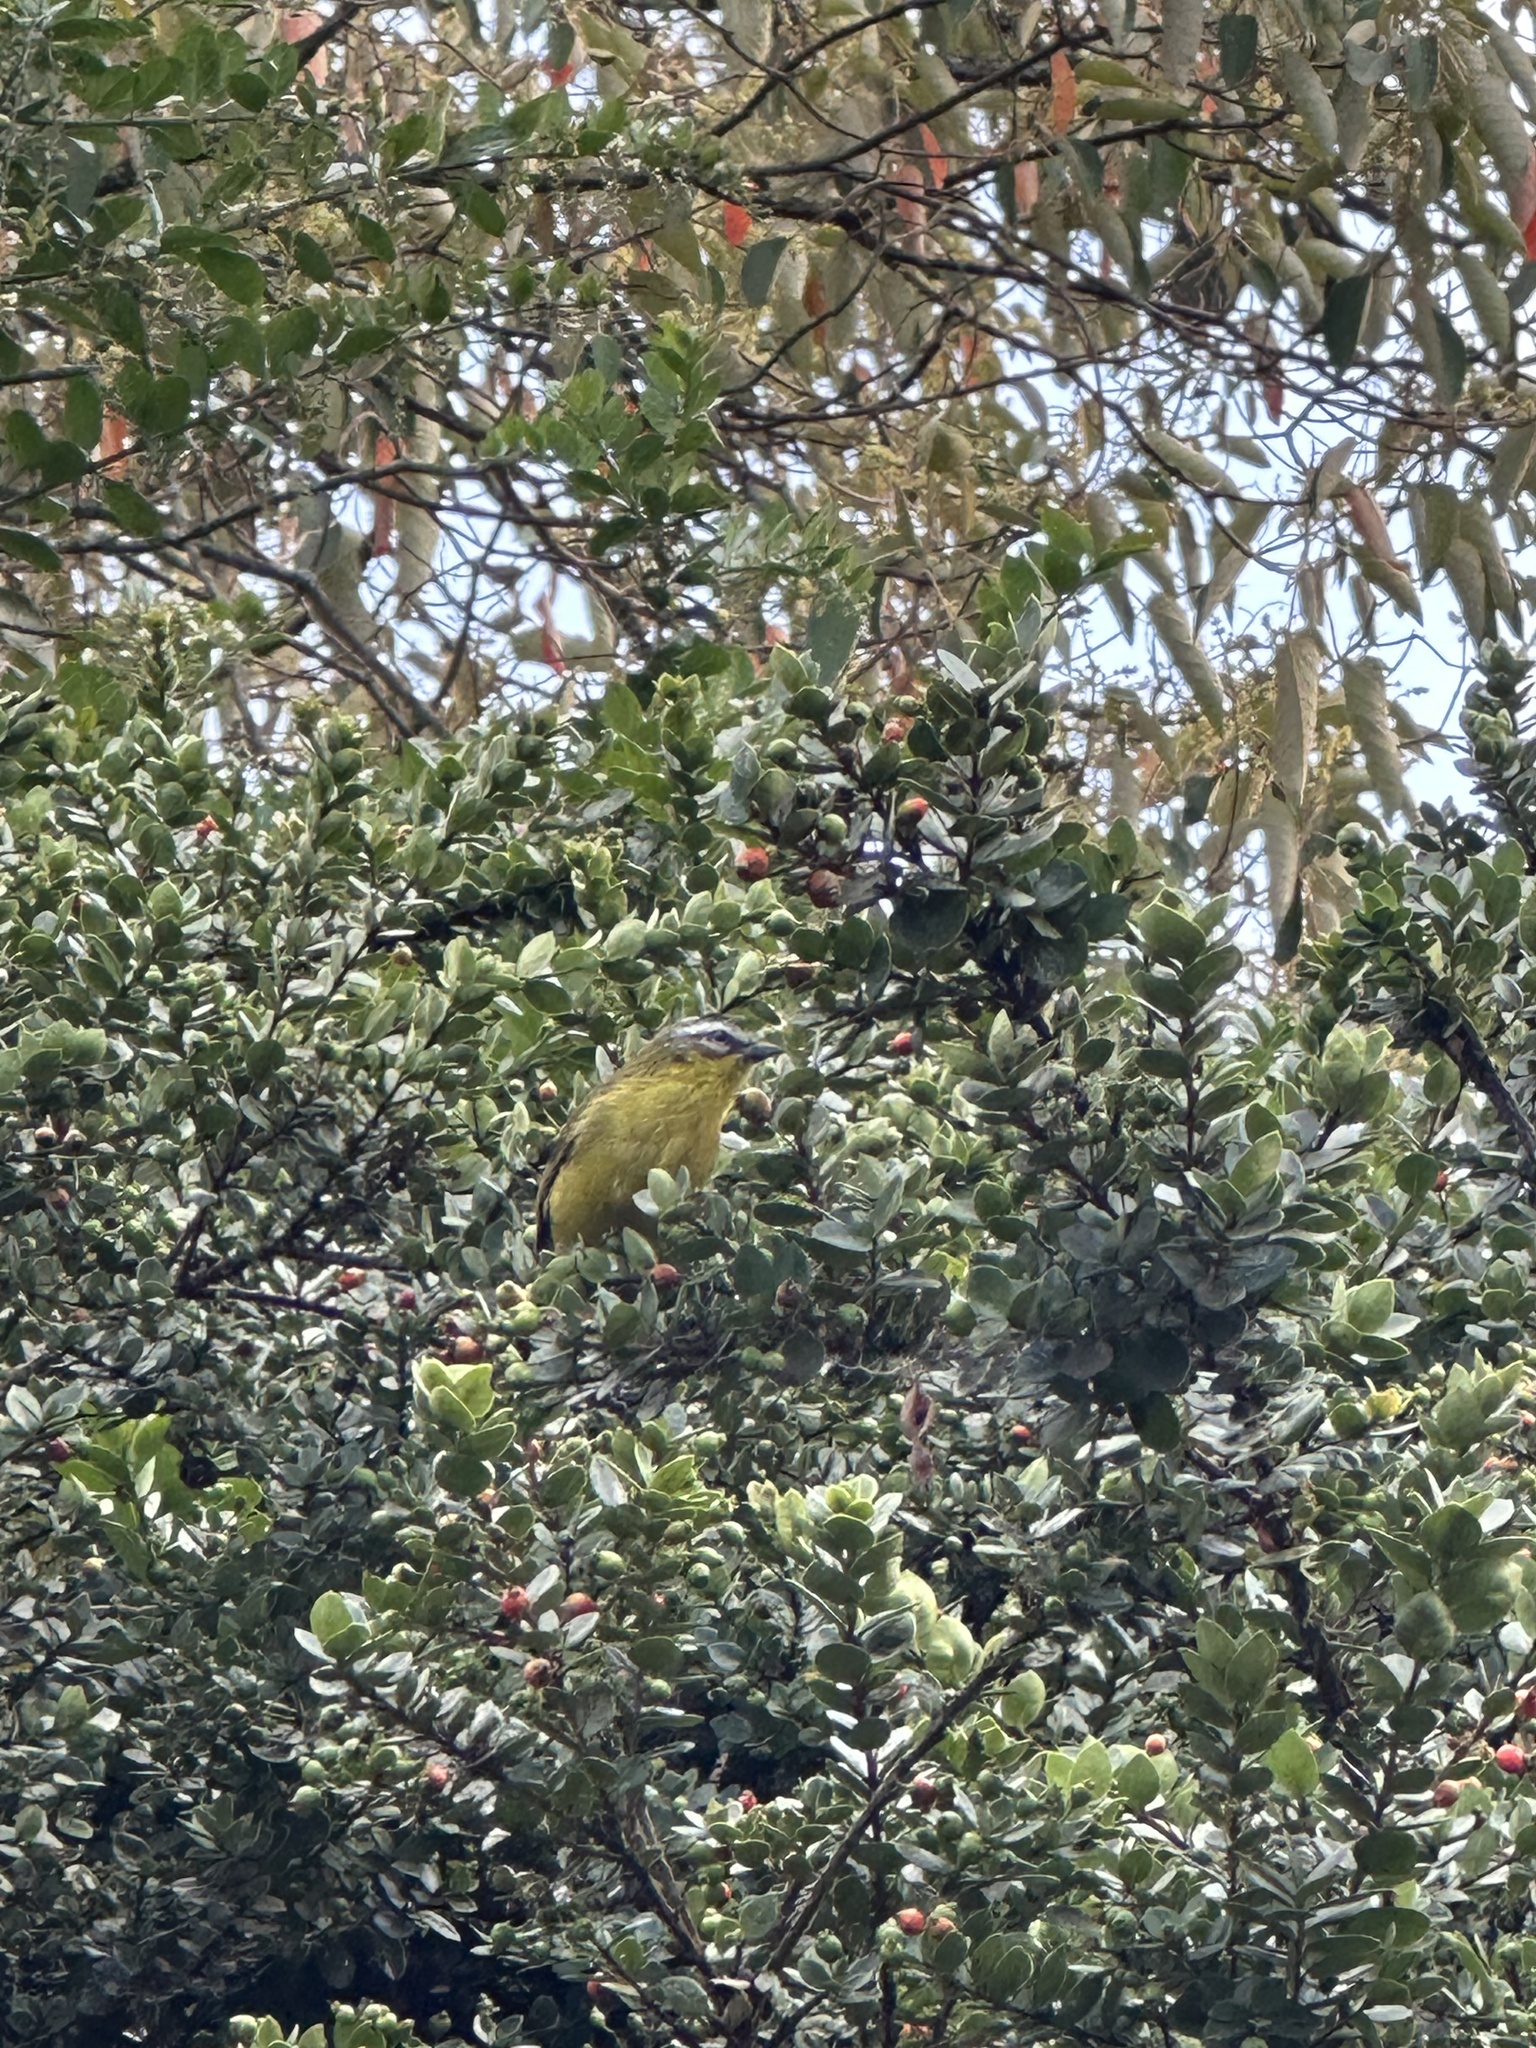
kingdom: Animalia
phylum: Chordata
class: Aves
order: Passeriformes
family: Thraupidae
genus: Thlypopsis
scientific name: Thlypopsis superciliaris
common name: Superciliaried hemispingus
